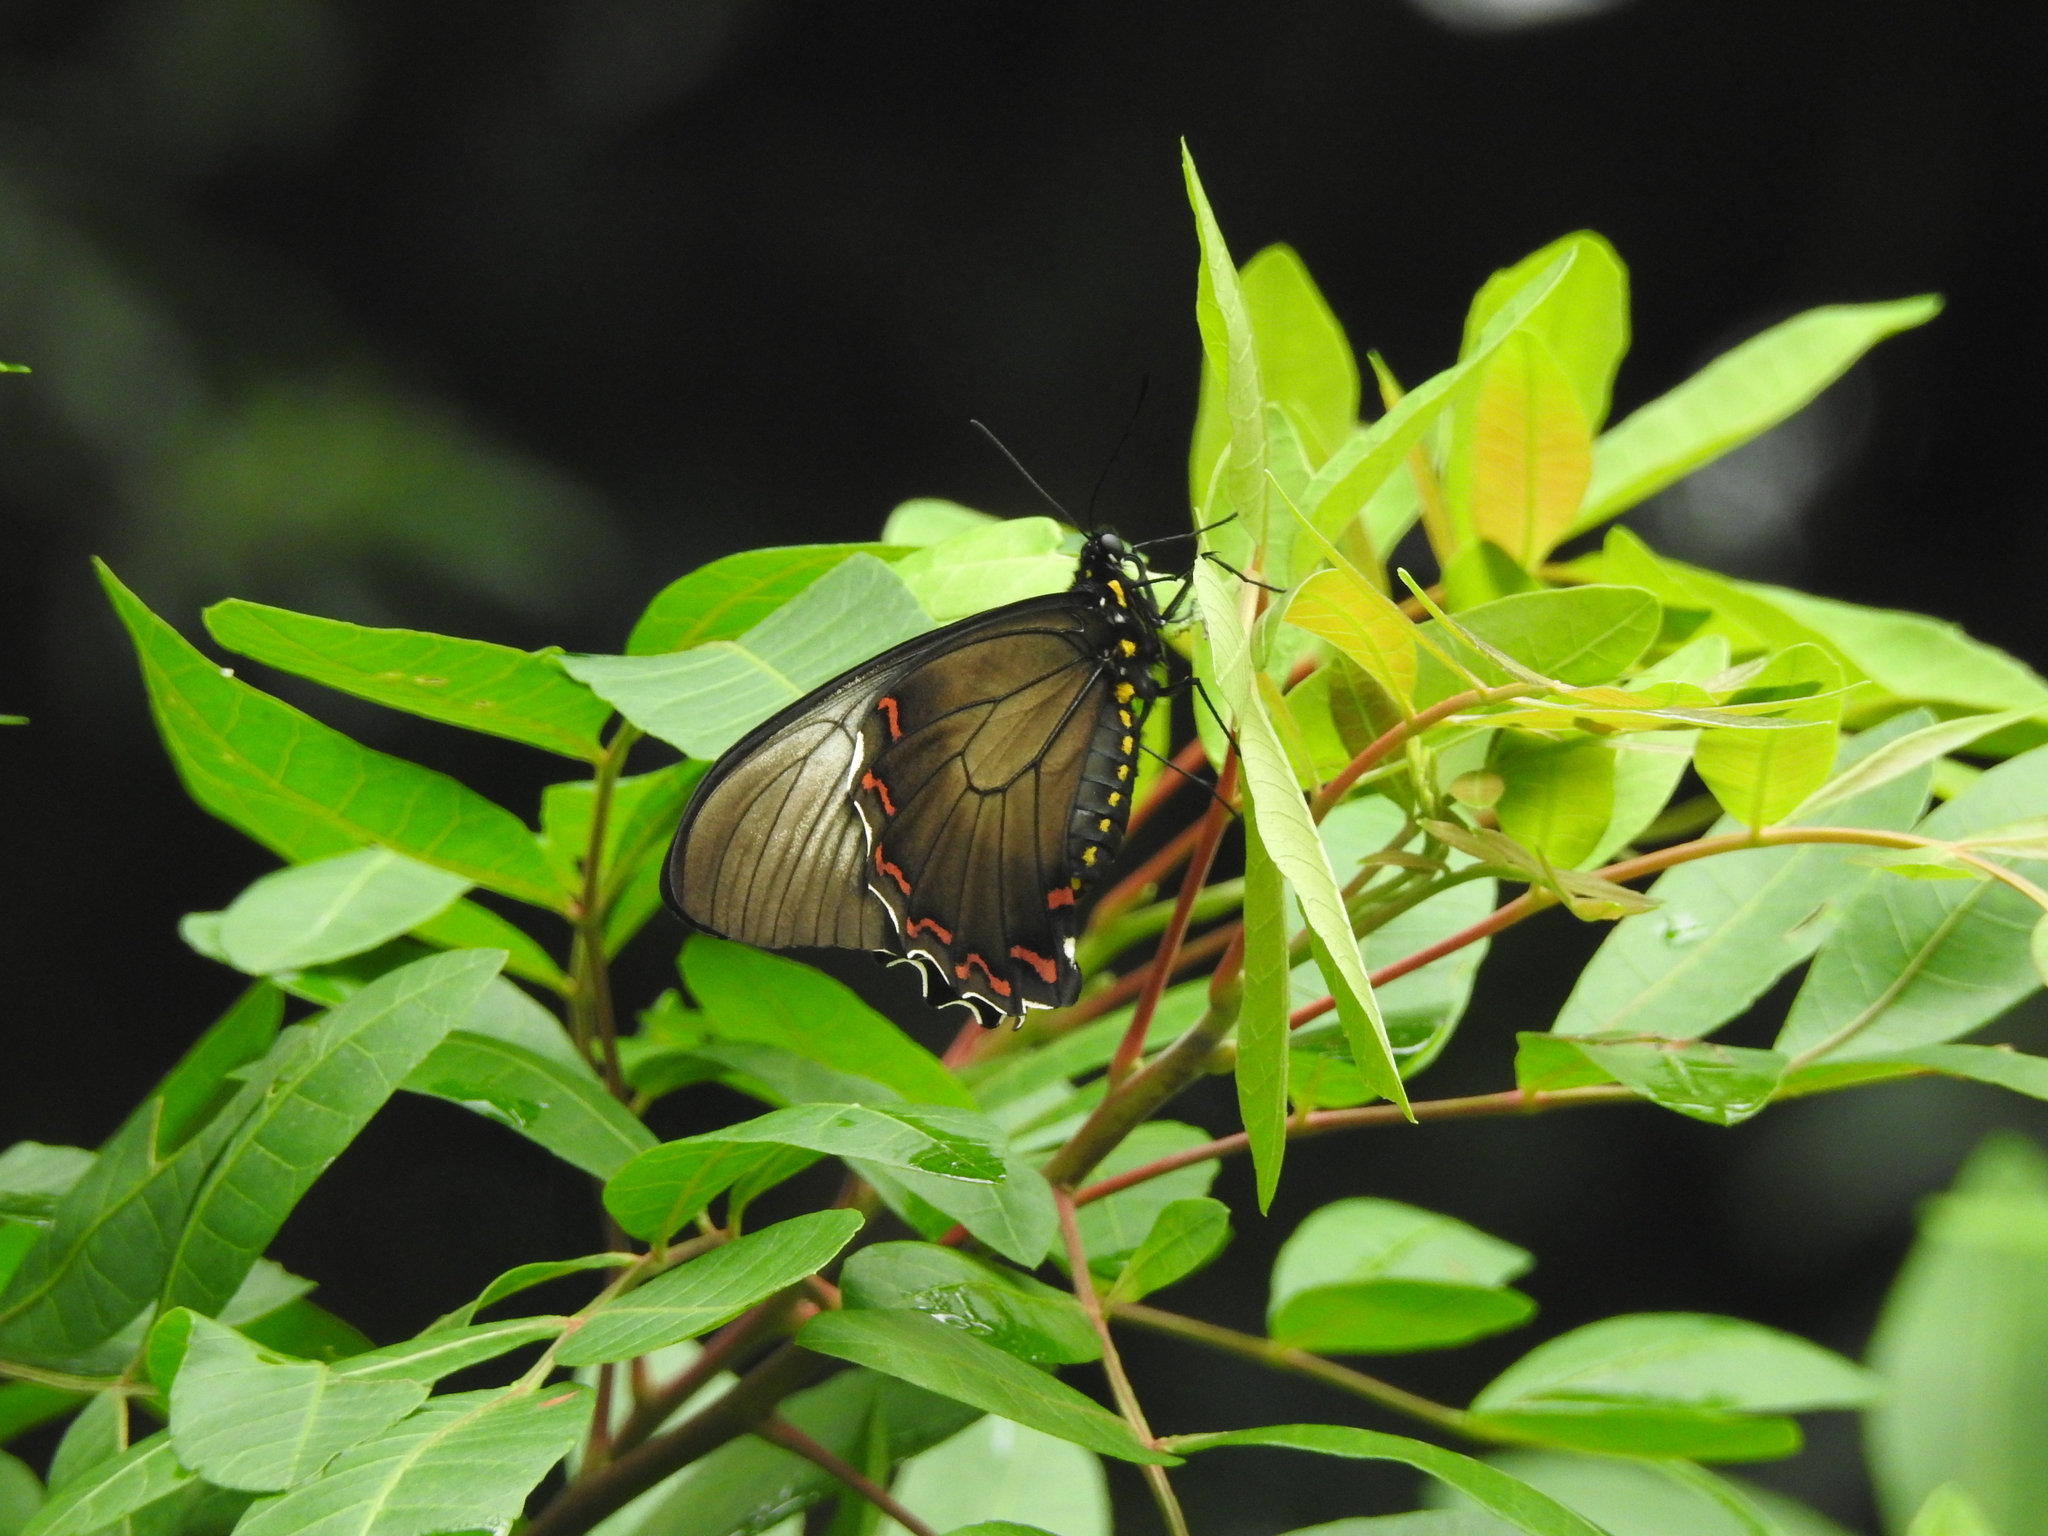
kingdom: Animalia
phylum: Arthropoda
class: Insecta
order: Lepidoptera
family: Papilionidae
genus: Battus
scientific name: Battus polystictus
